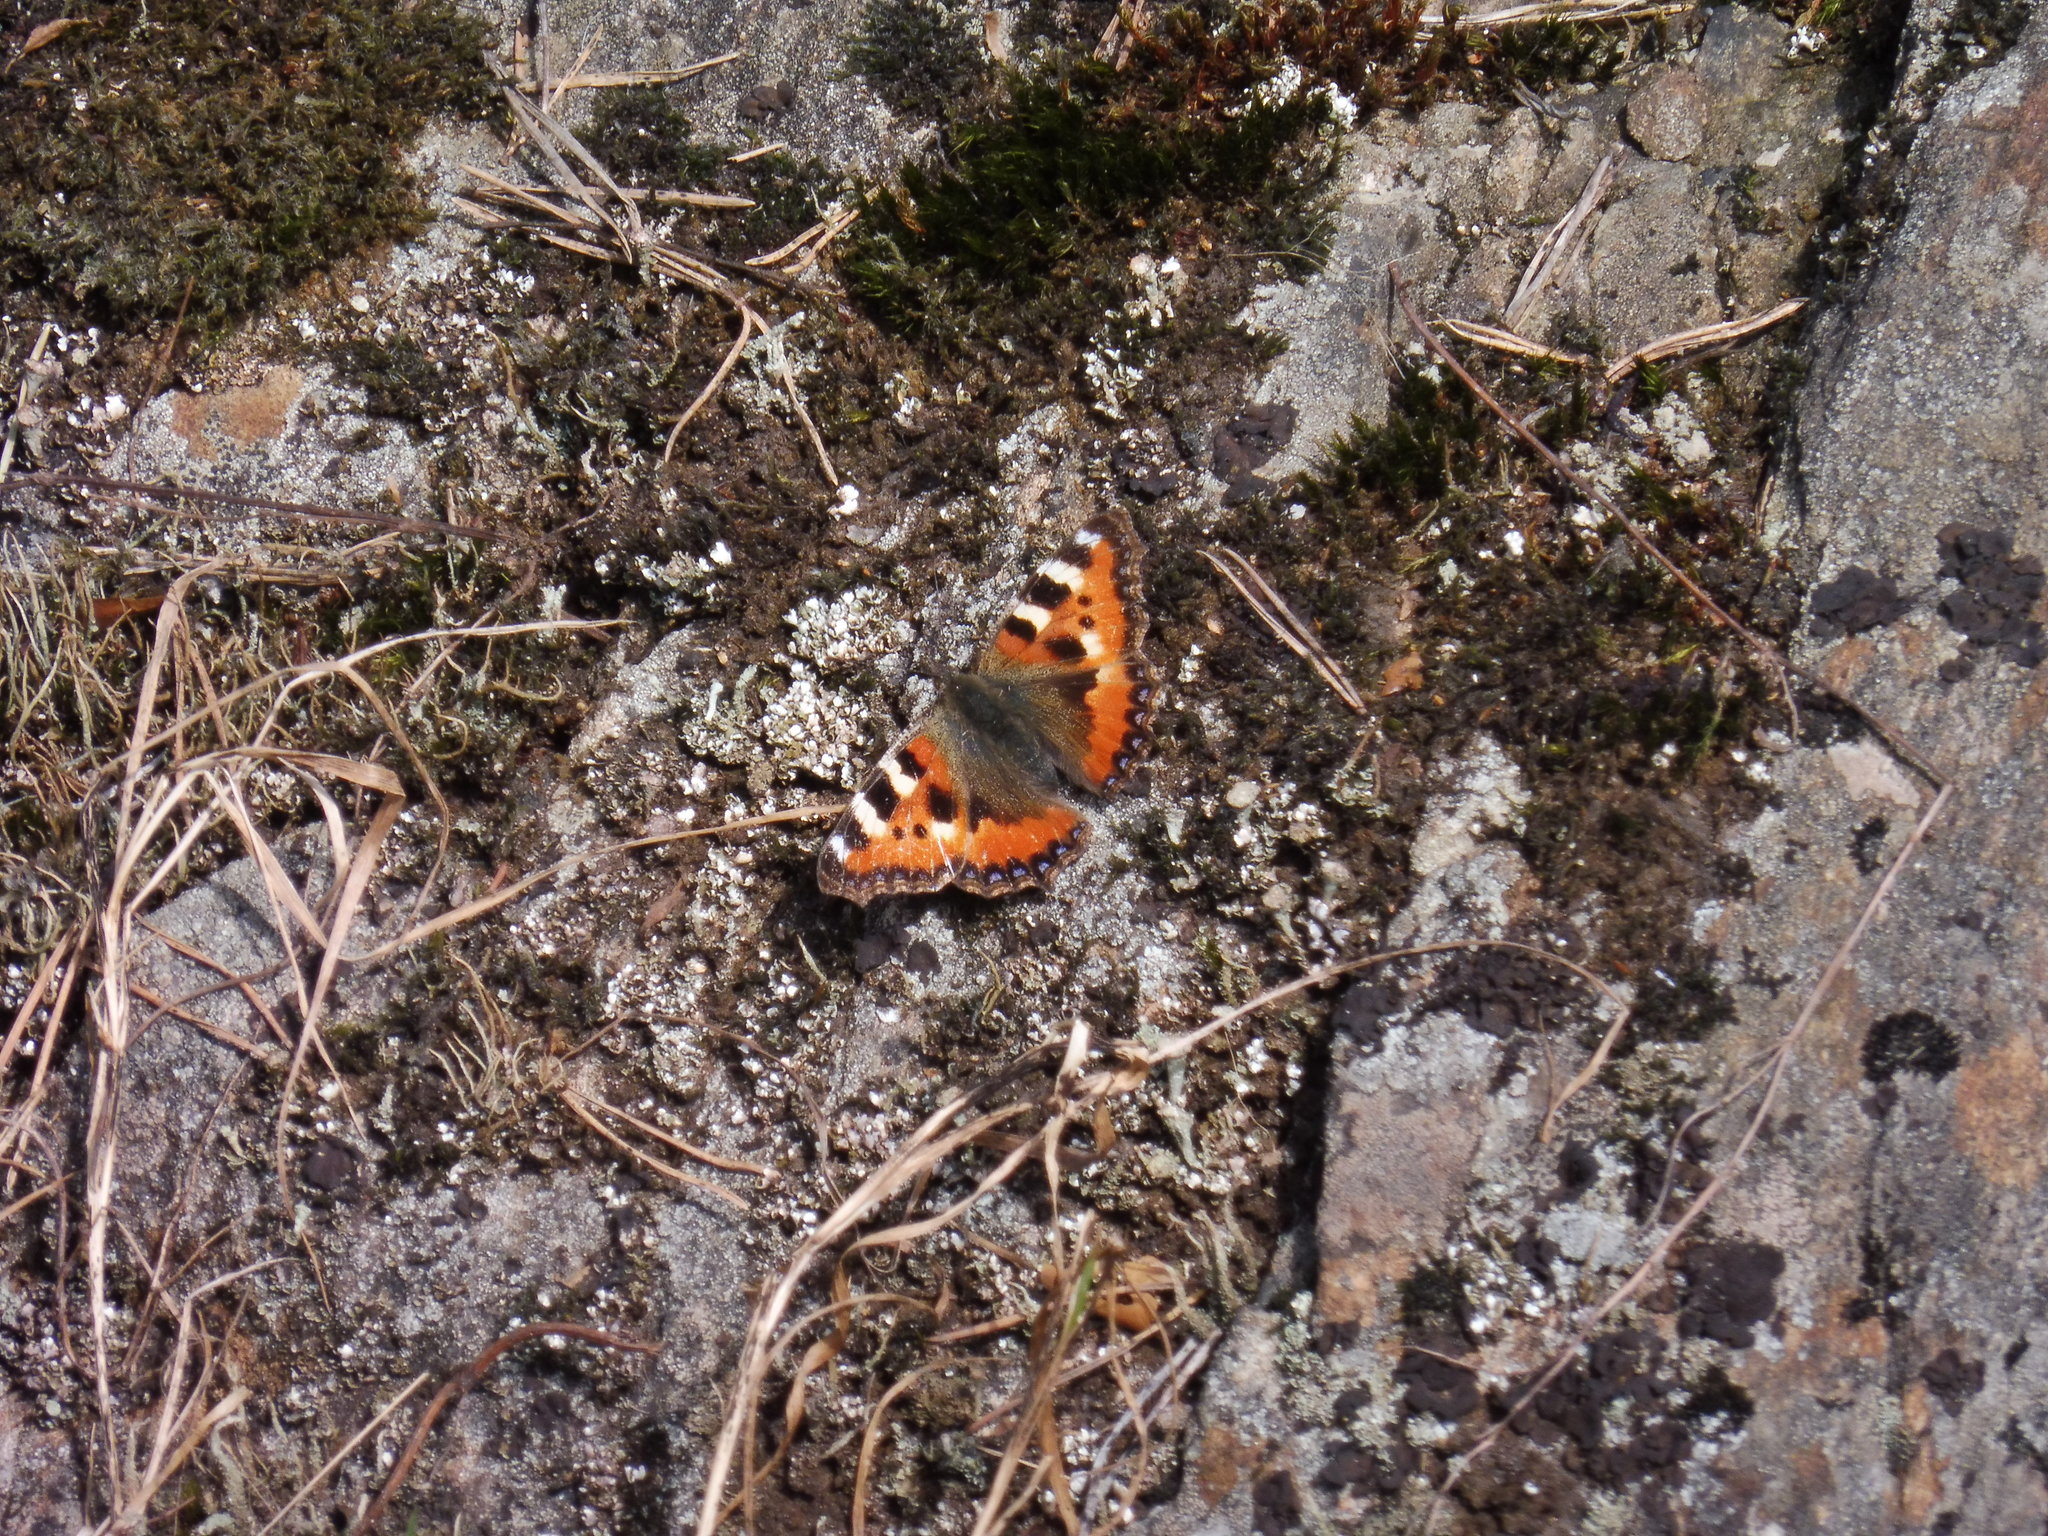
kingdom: Animalia
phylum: Arthropoda
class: Insecta
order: Lepidoptera
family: Nymphalidae
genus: Aglais
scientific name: Aglais urticae
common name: Small tortoiseshell
